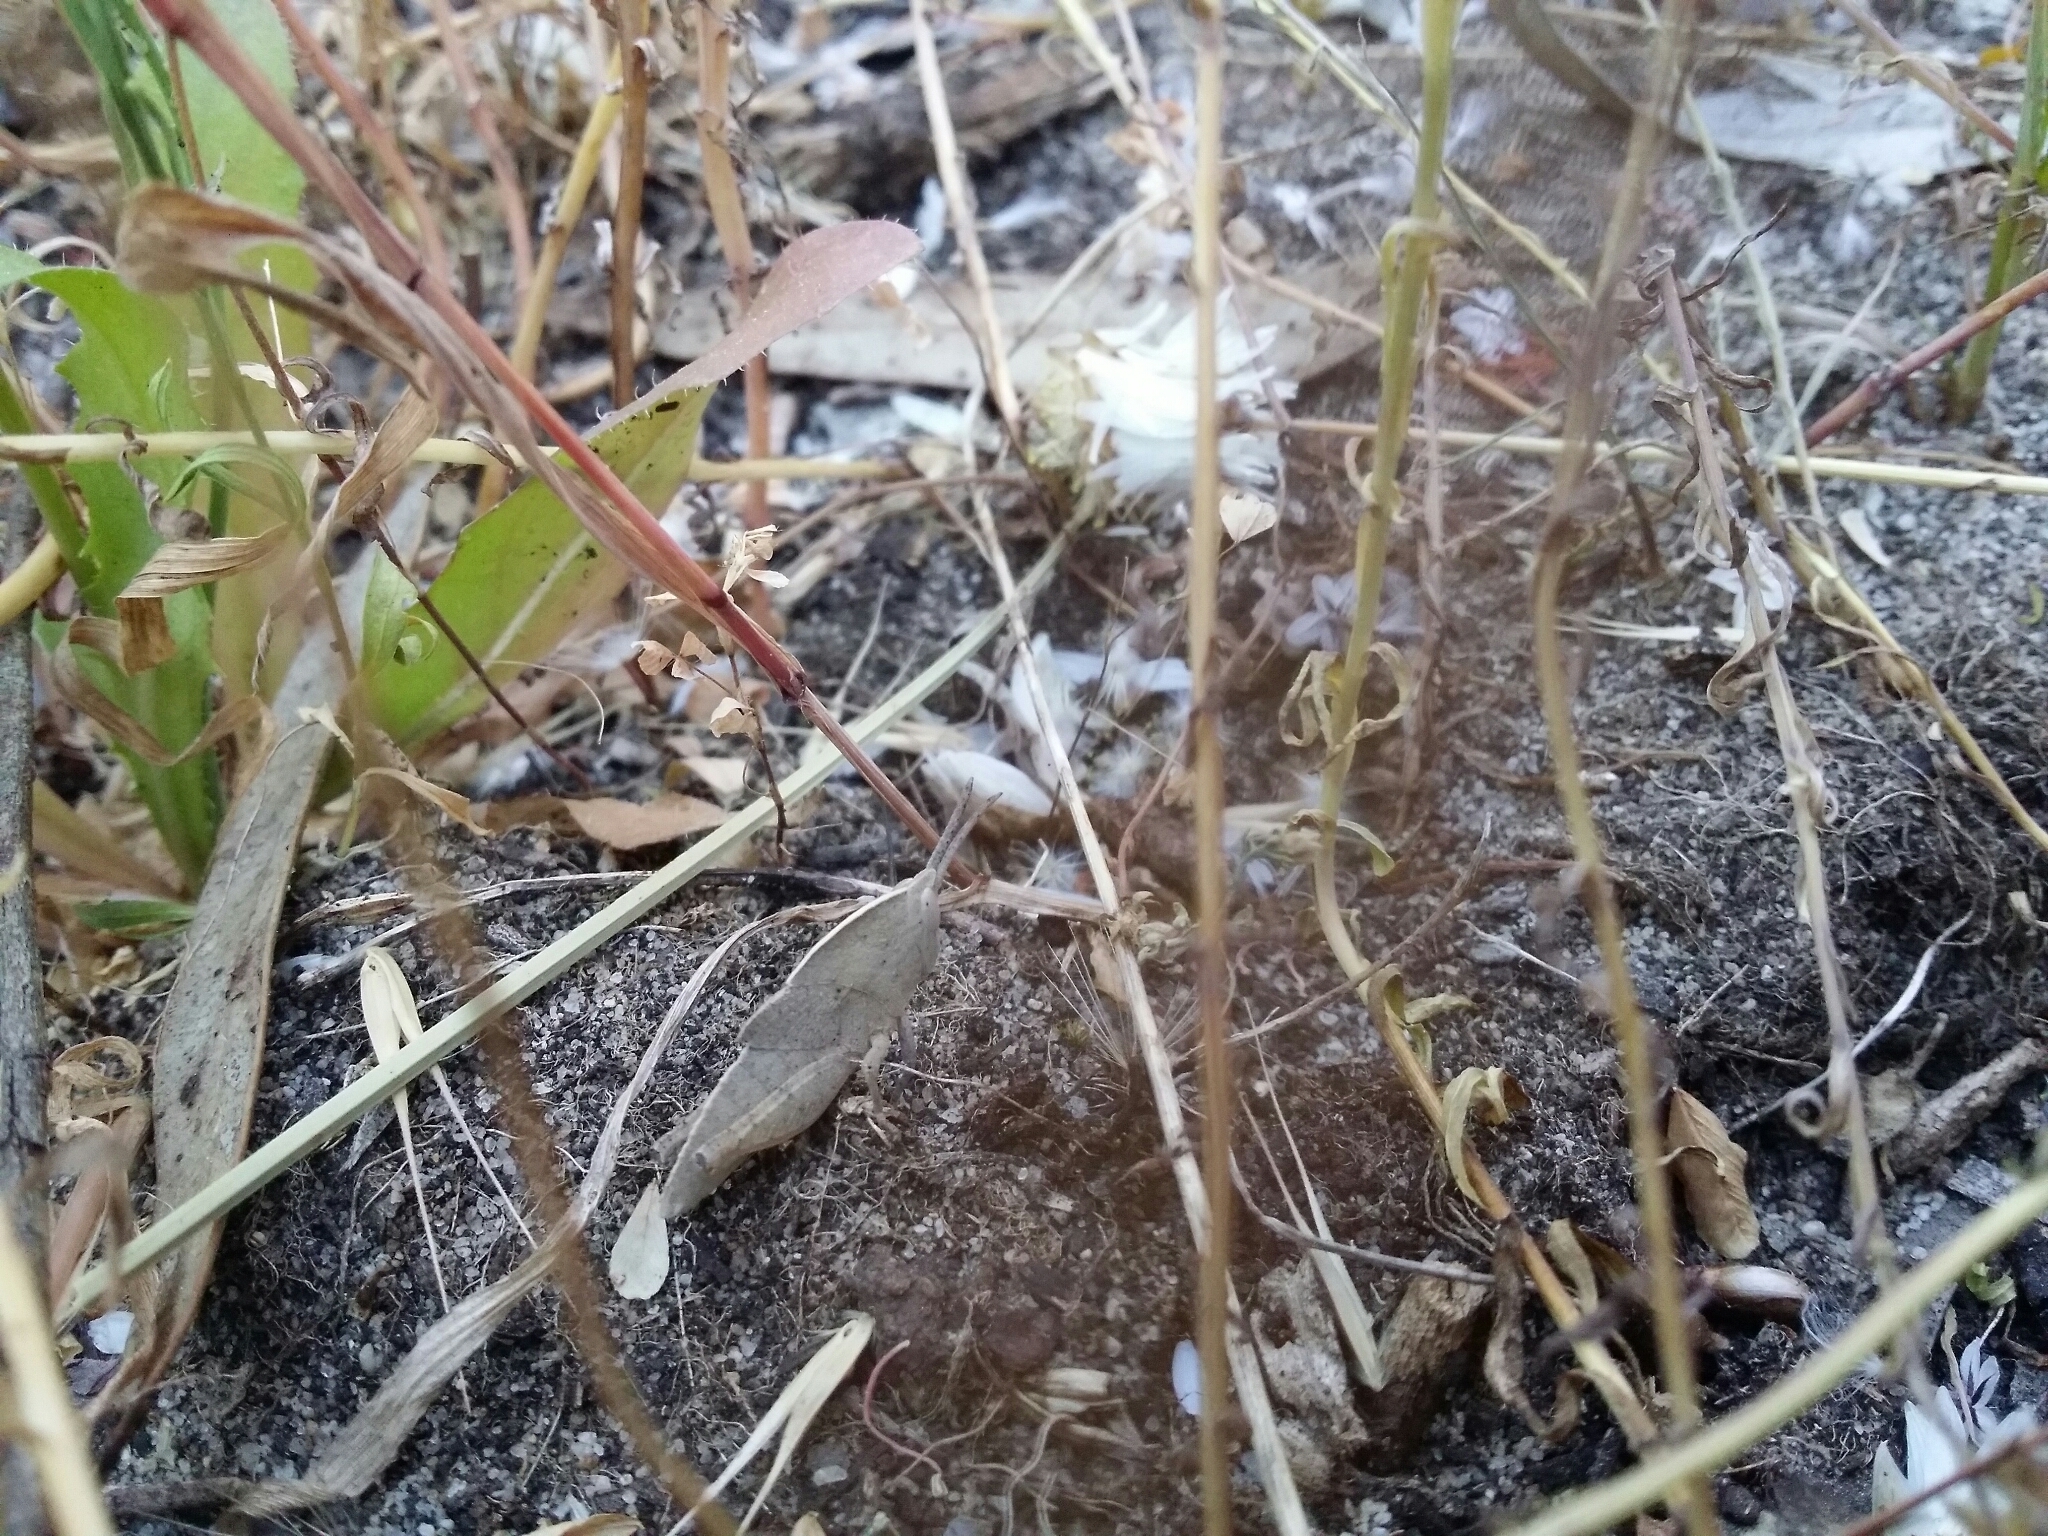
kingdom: Animalia
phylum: Arthropoda
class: Insecta
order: Orthoptera
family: Acrididae
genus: Goniaea
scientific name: Goniaea australasiae
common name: Gumleaf grasshopper
